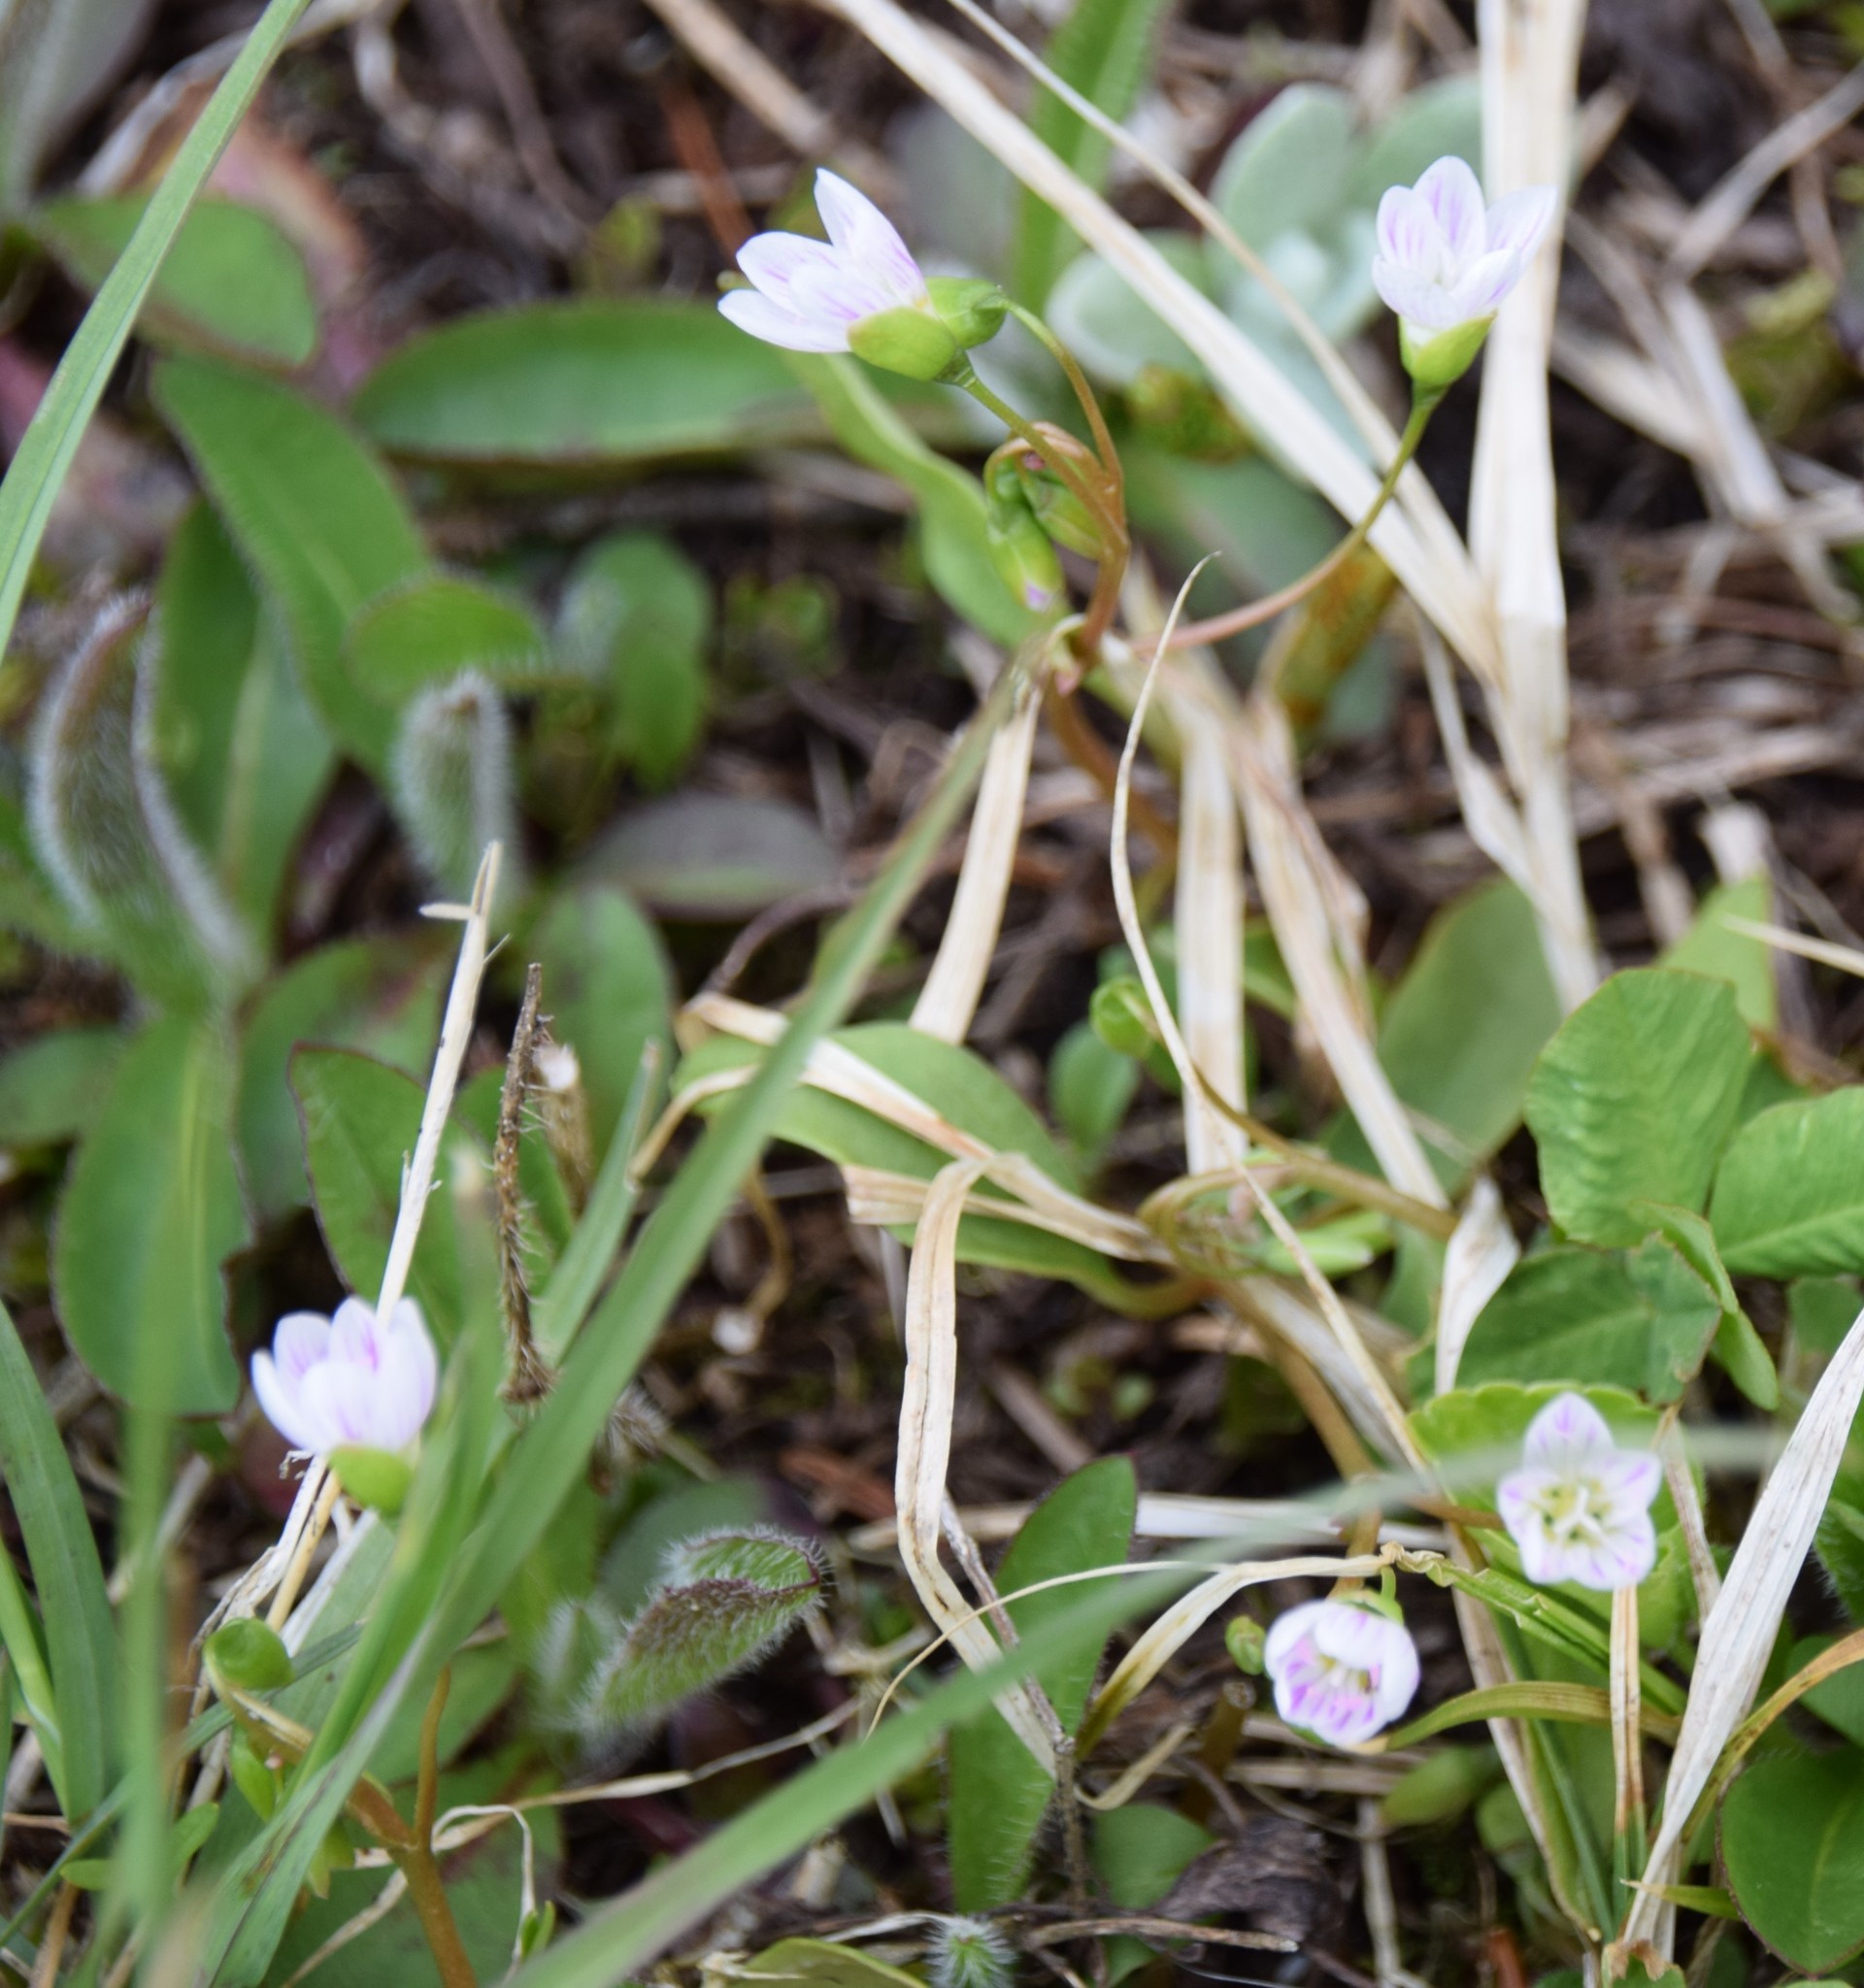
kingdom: Plantae
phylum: Tracheophyta
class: Magnoliopsida
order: Caryophyllales
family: Montiaceae
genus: Claytonia
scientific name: Claytonia caroliniana
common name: Carolina spring beauty
